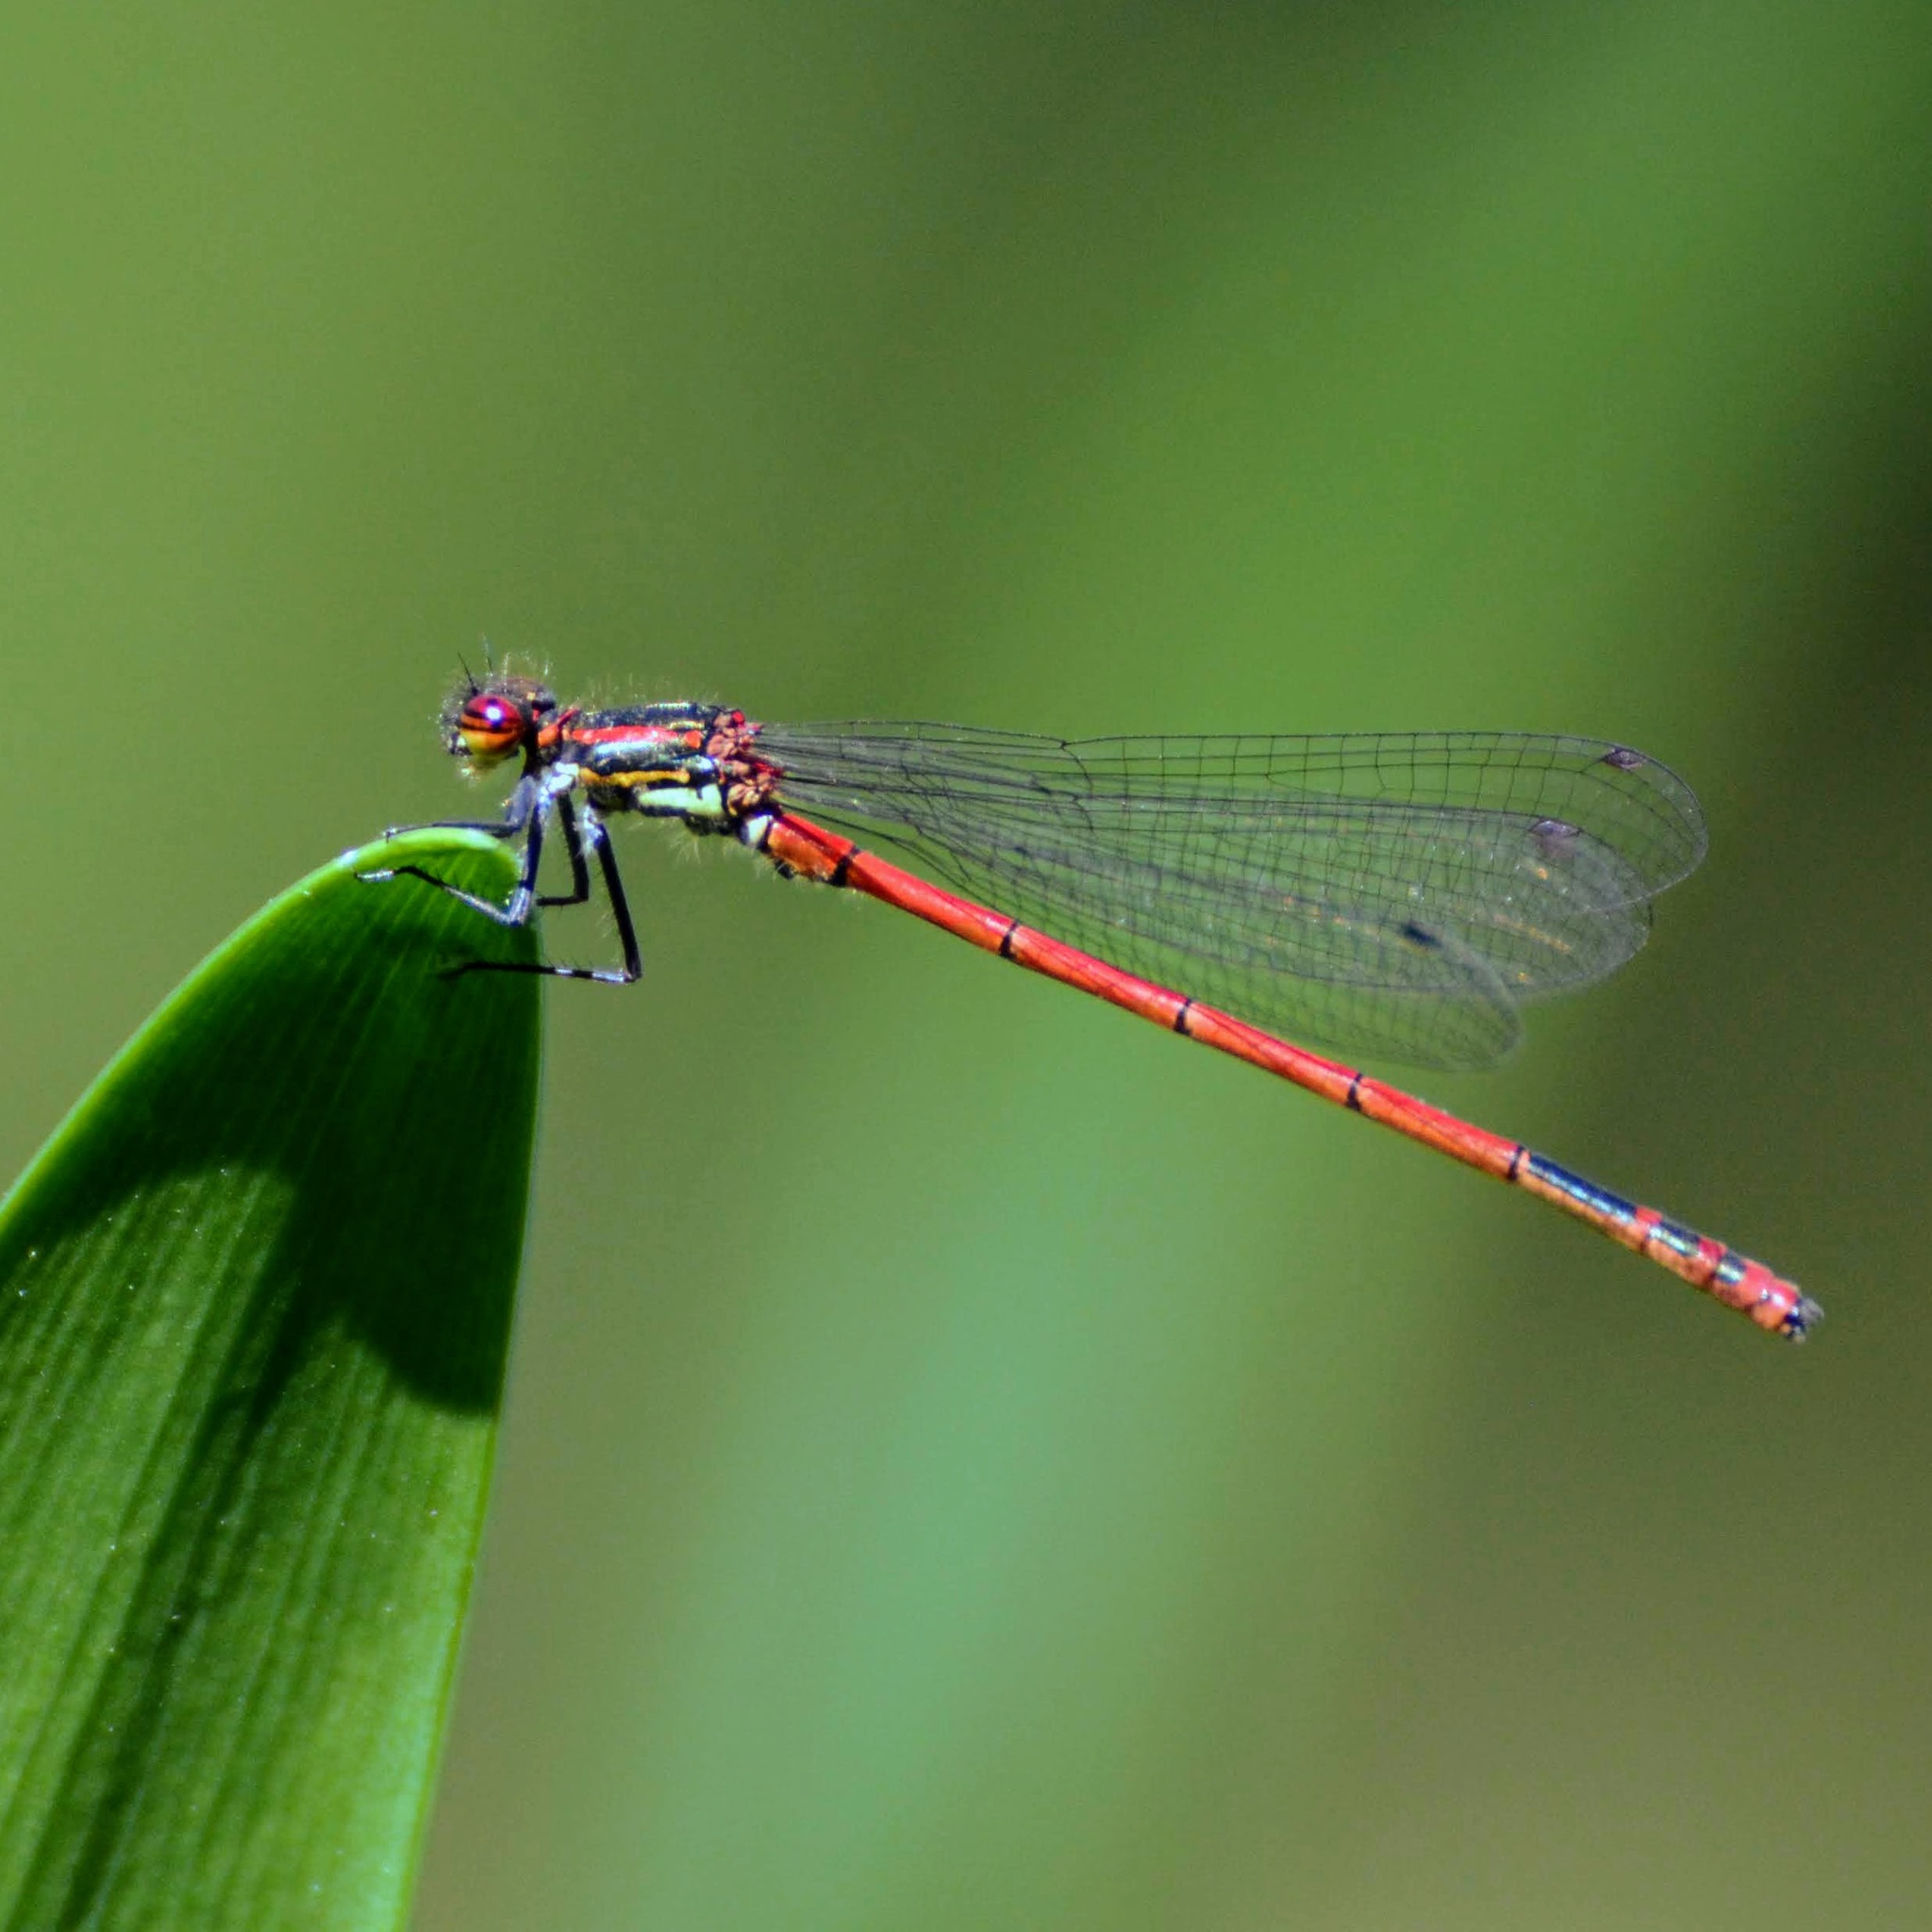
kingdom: Animalia
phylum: Arthropoda
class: Insecta
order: Odonata
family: Coenagrionidae
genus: Pyrrhosoma
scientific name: Pyrrhosoma nymphula
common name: Large red damsel
